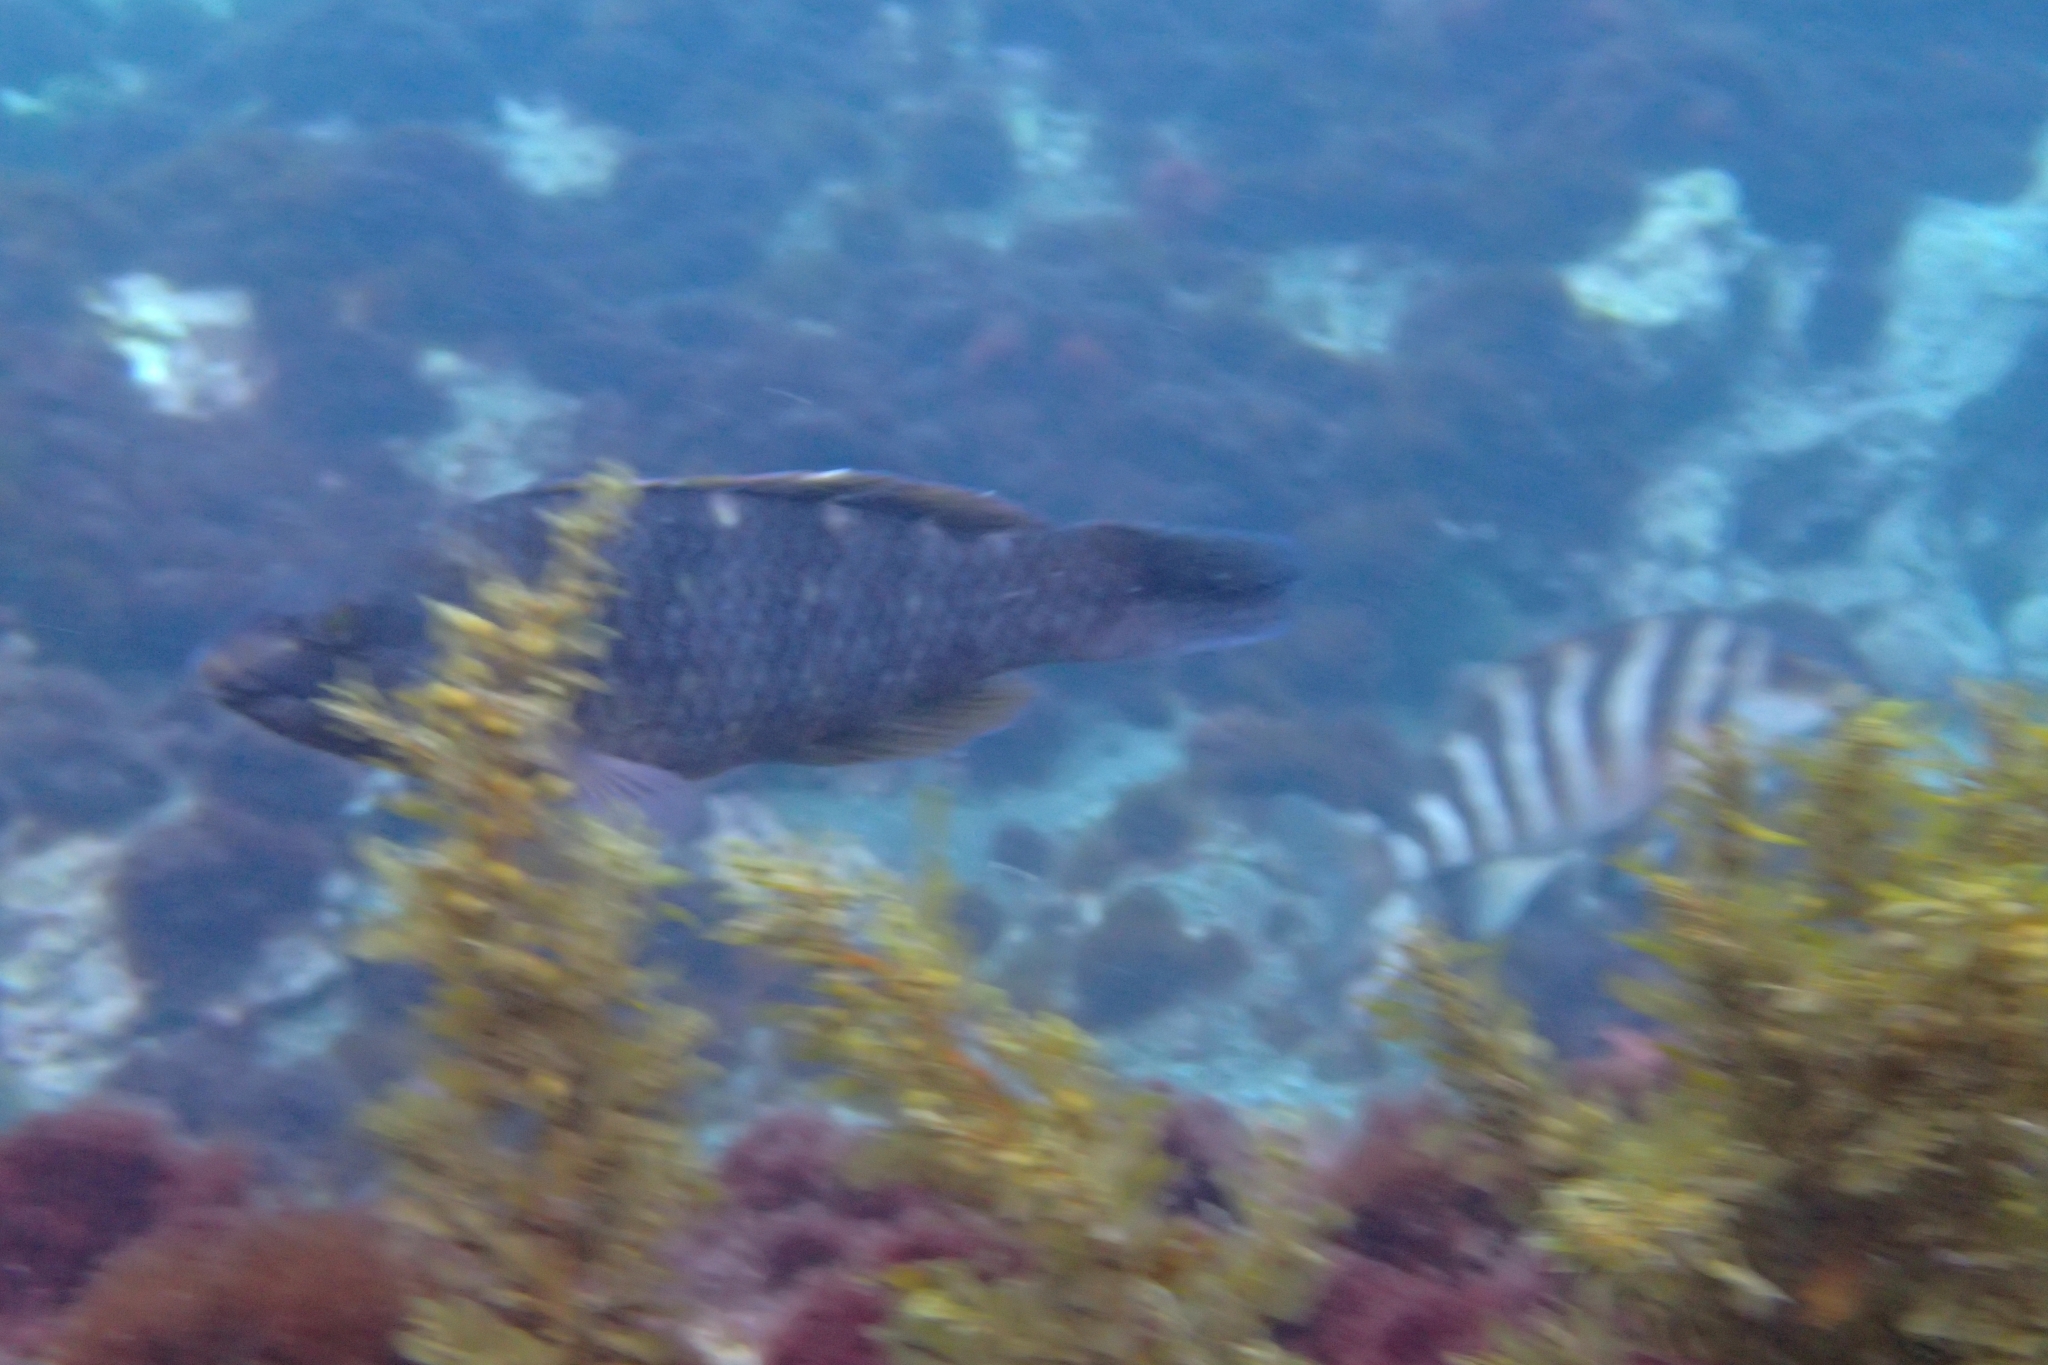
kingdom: Animalia
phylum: Chordata
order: Perciformes
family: Labridae
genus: Notolabrus
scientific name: Notolabrus fucicola
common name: Banded parrotfish
